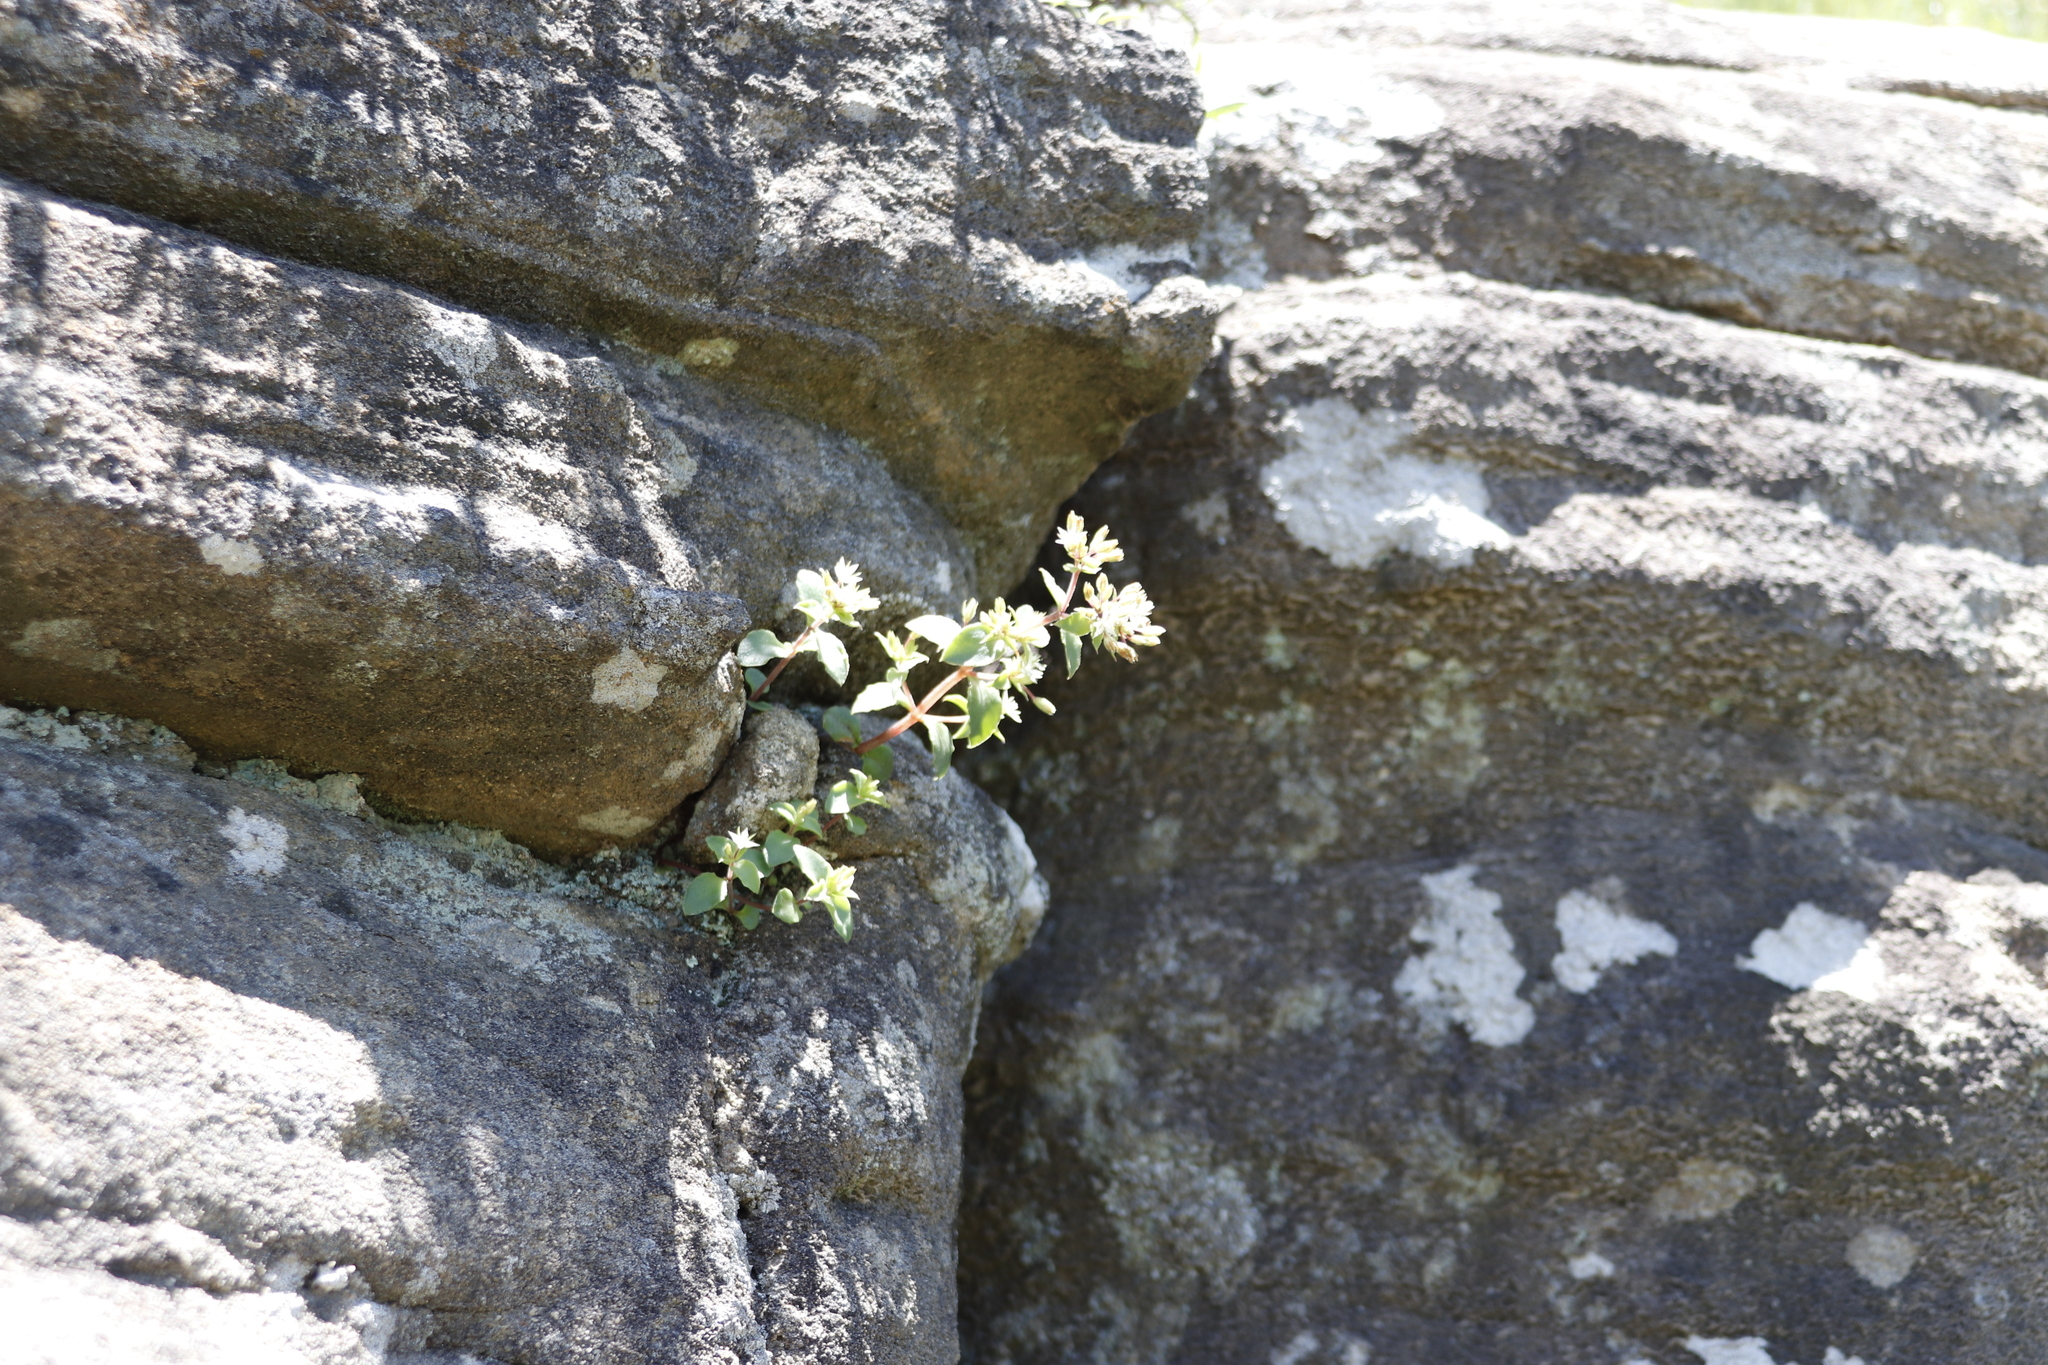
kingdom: Plantae
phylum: Tracheophyta
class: Magnoliopsida
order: Saxifragales
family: Crassulaceae
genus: Crassula
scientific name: Crassula pellucida
